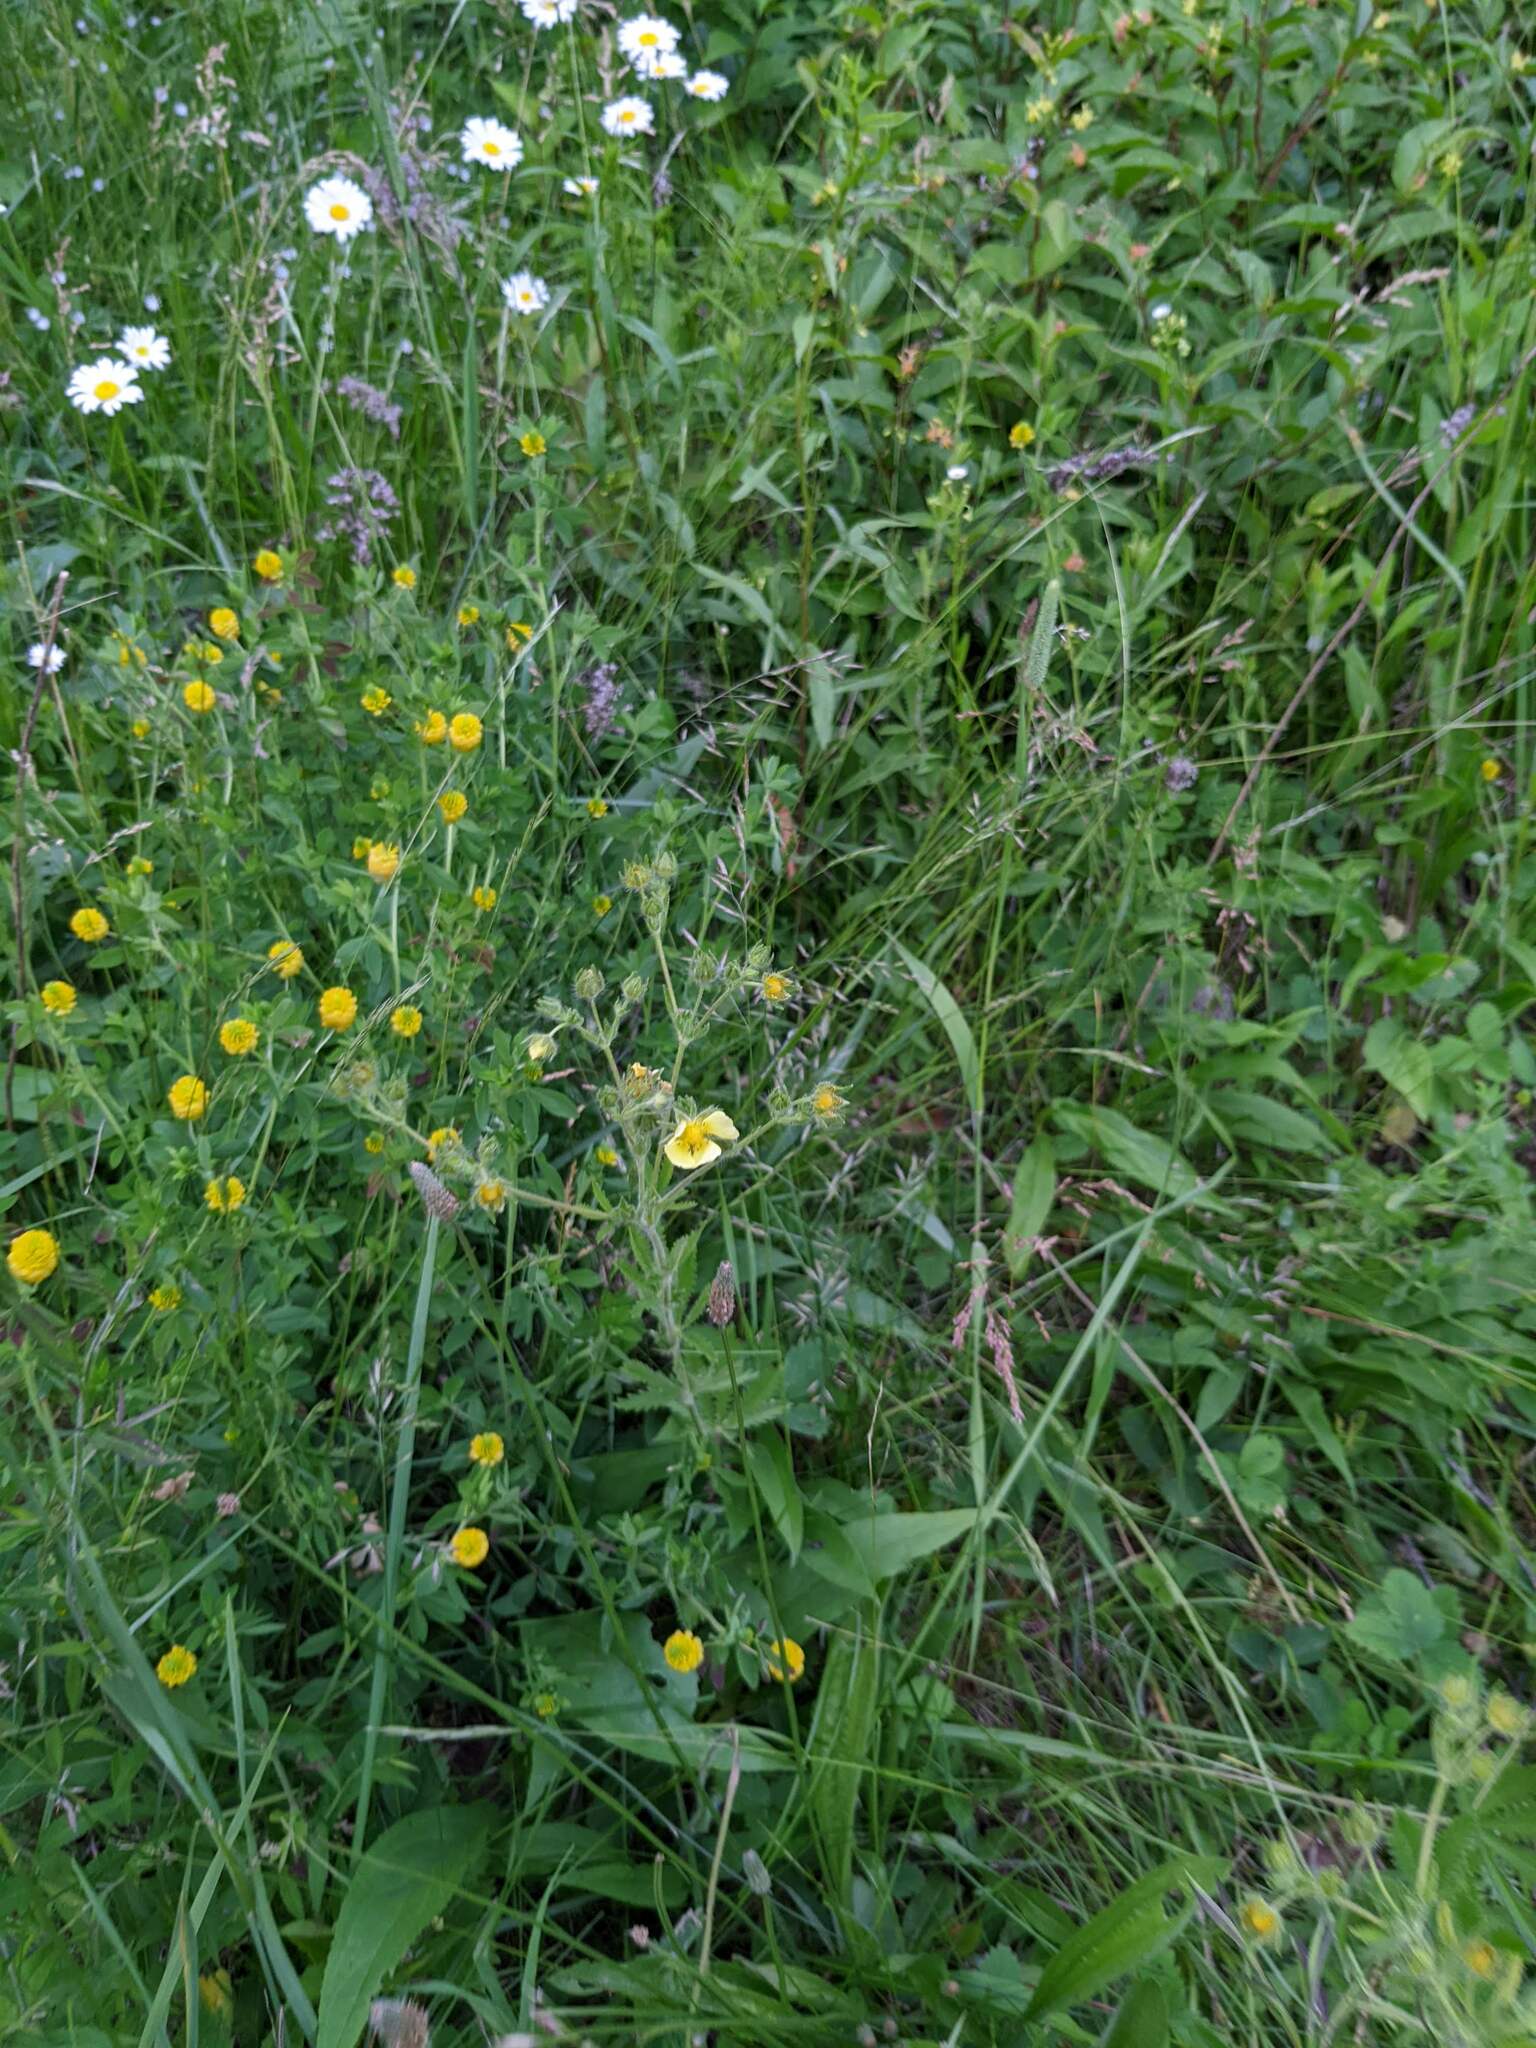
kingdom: Plantae
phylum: Tracheophyta
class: Magnoliopsida
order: Rosales
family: Rosaceae
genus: Potentilla
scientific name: Potentilla recta
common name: Sulphur cinquefoil
